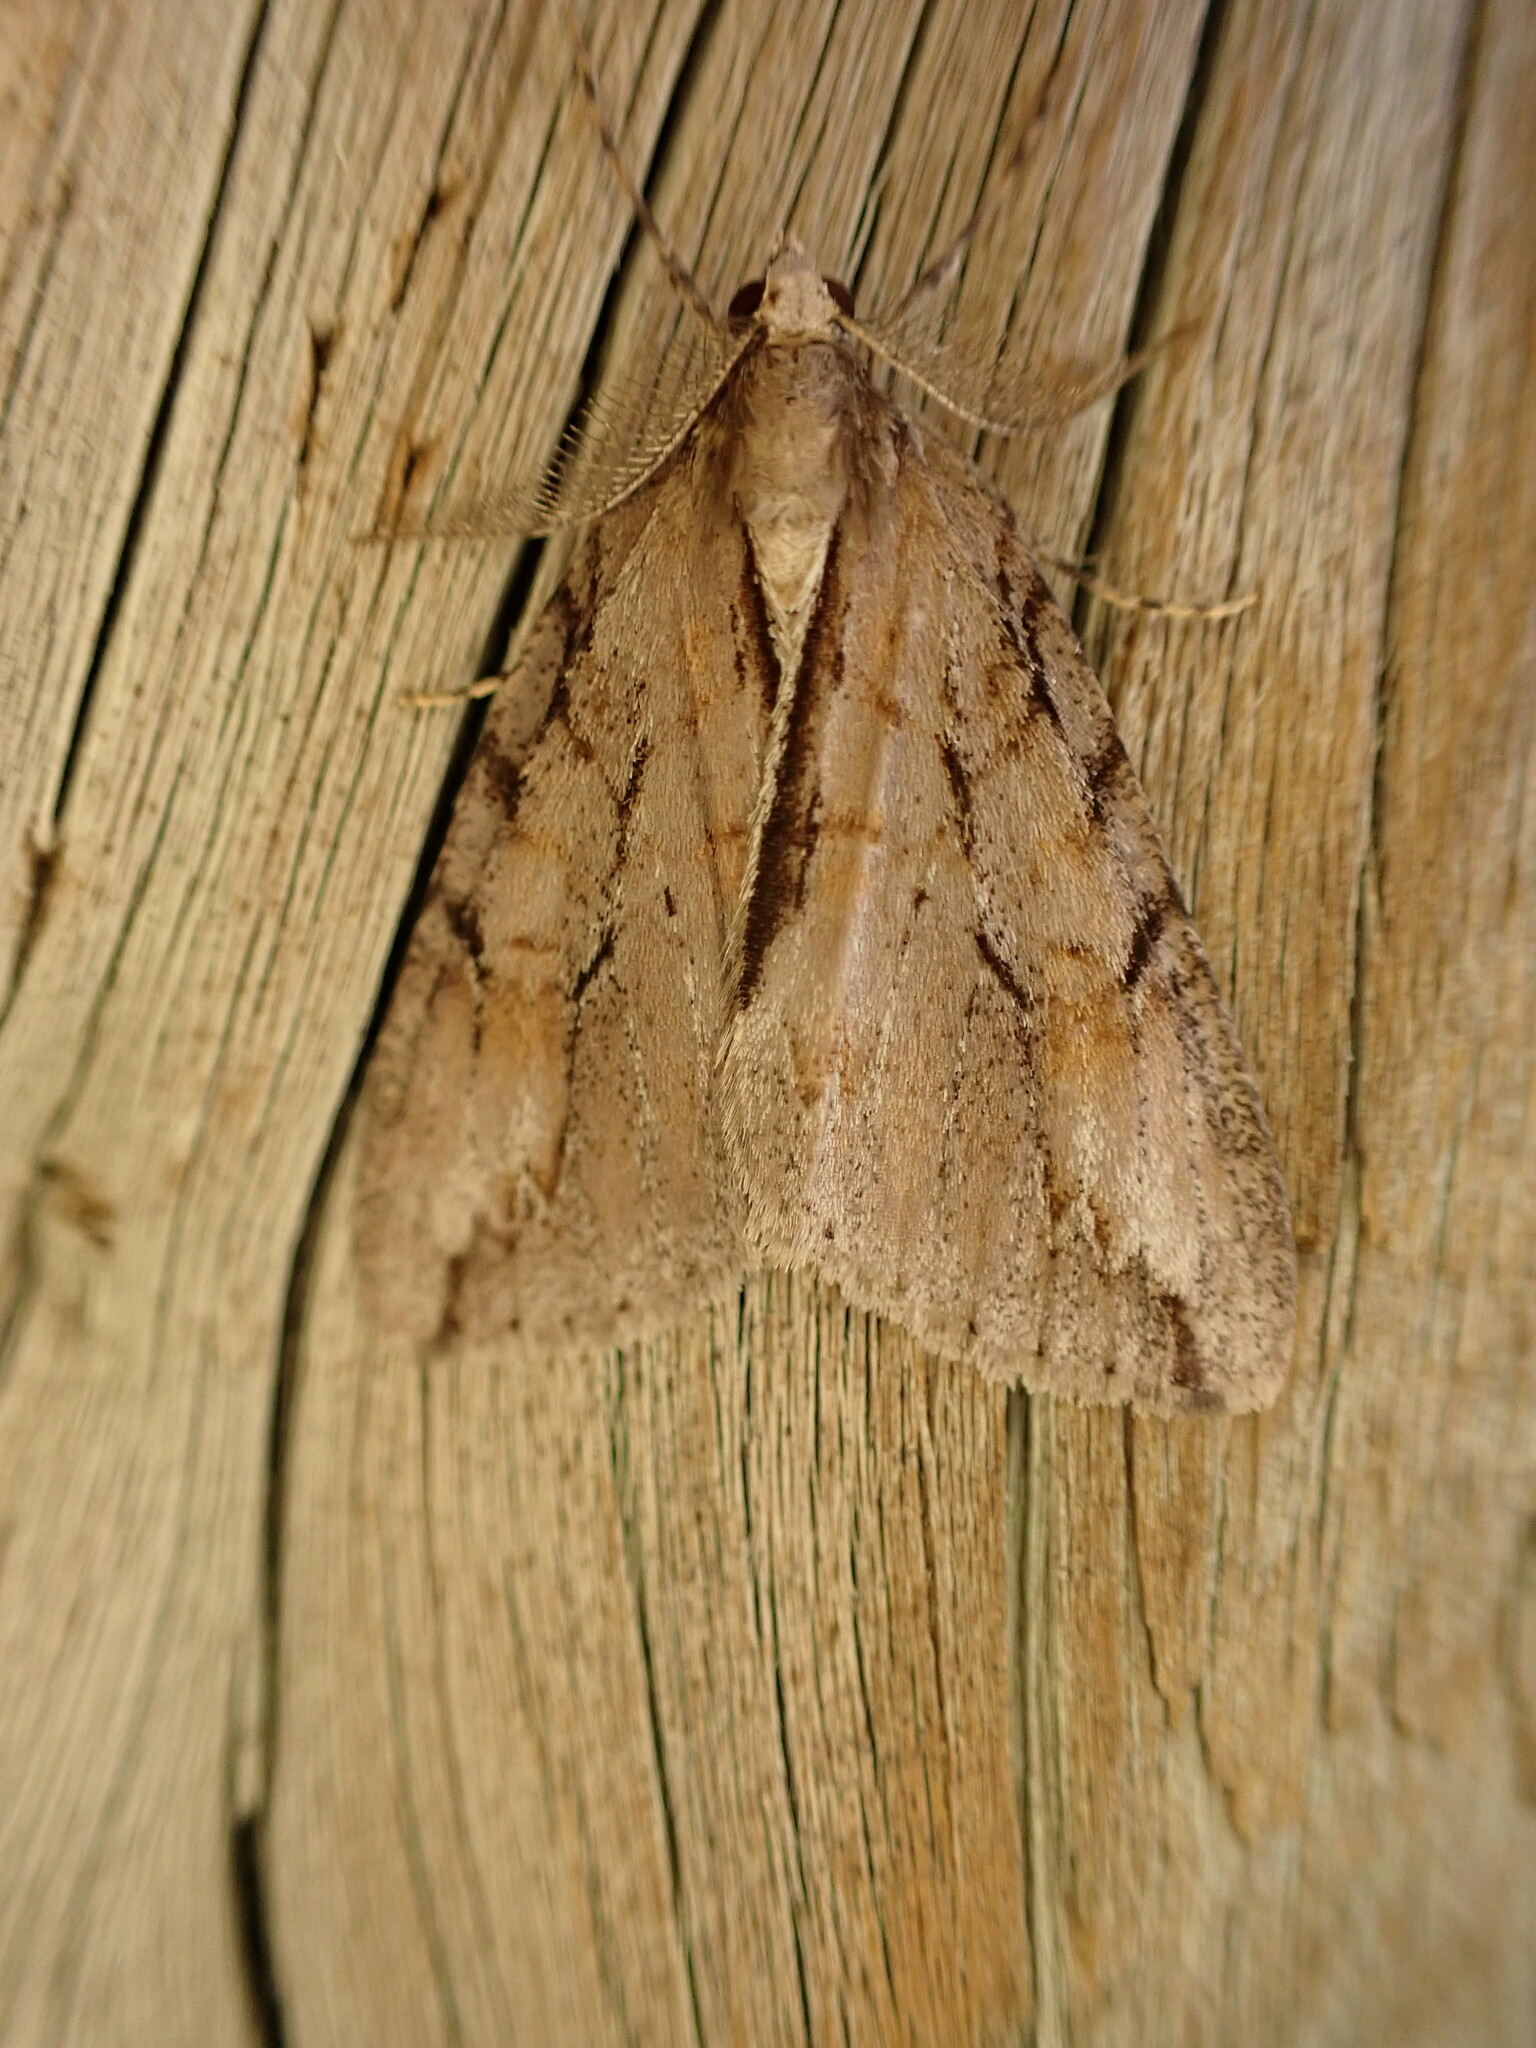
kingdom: Animalia
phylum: Arthropoda
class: Insecta
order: Lepidoptera
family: Geometridae
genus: Pseudocoremia
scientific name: Pseudocoremia lupinata
